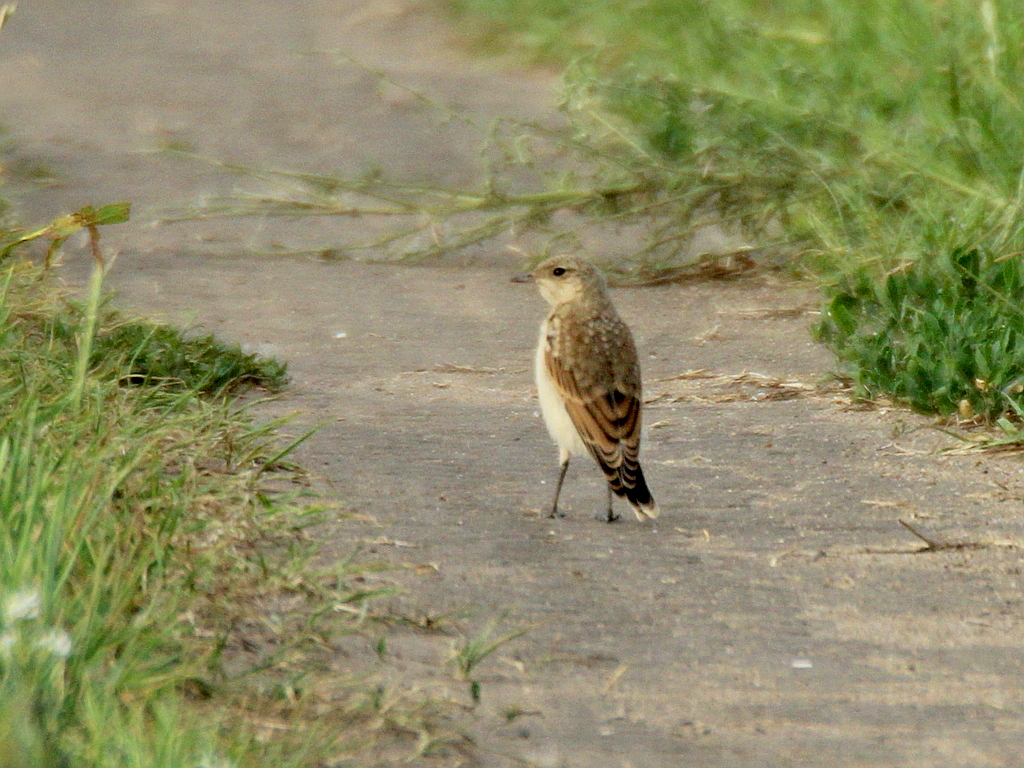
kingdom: Animalia
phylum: Chordata
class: Aves
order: Passeriformes
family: Muscicapidae
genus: Oenanthe
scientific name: Oenanthe oenanthe
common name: Northern wheatear
